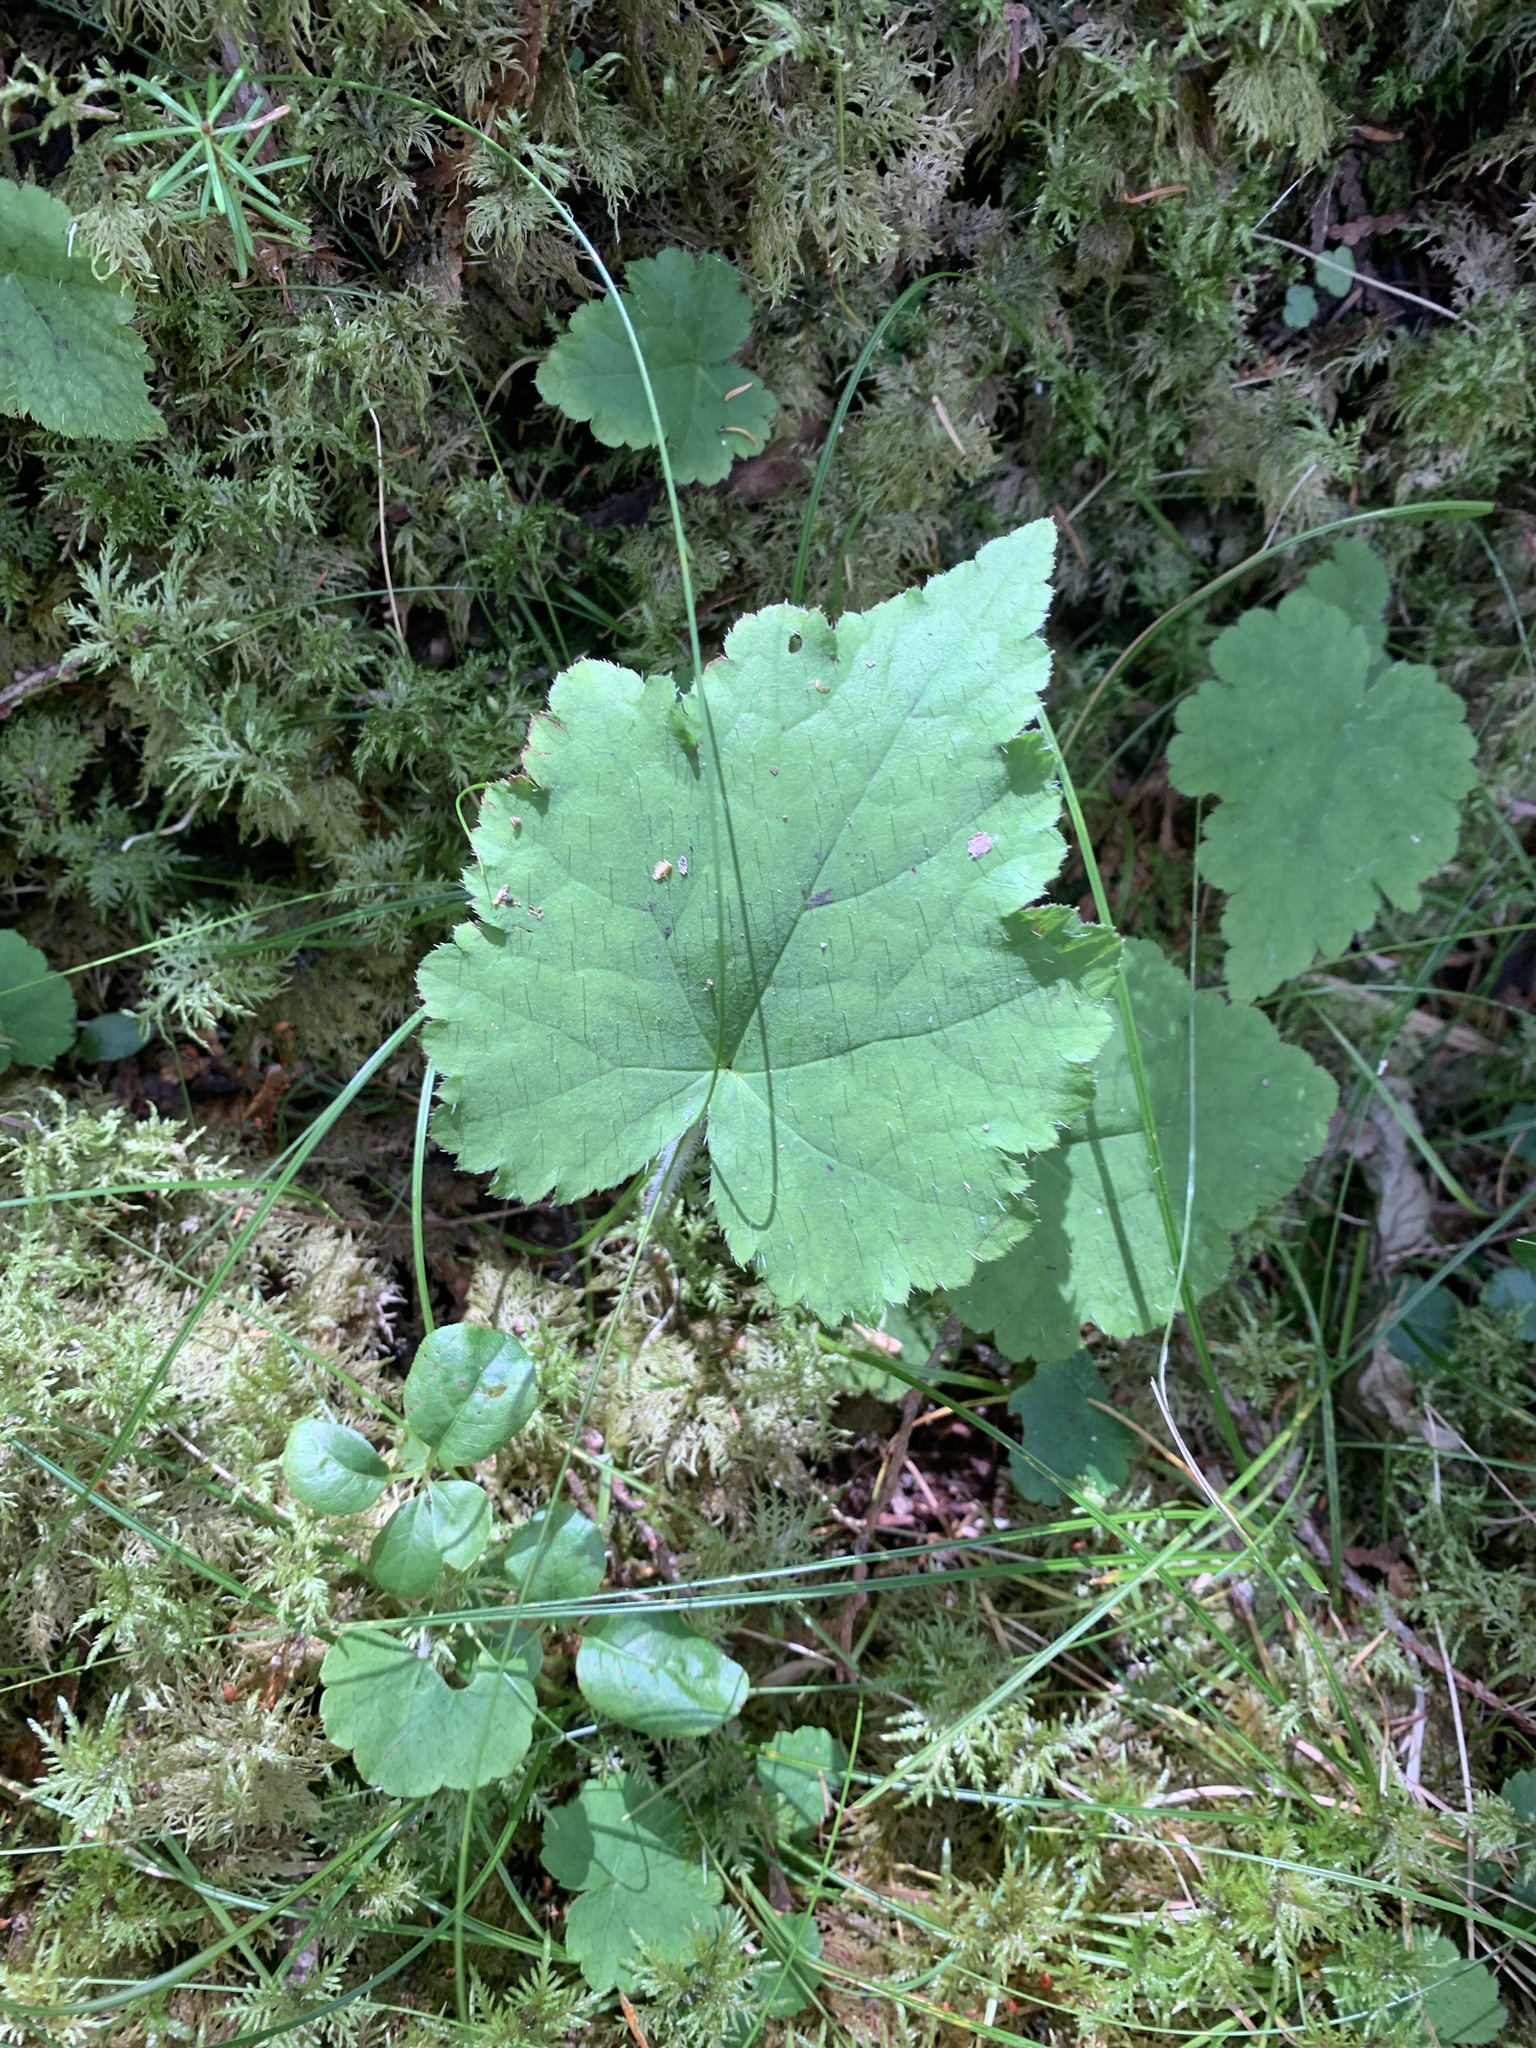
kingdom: Plantae
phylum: Tracheophyta
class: Magnoliopsida
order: Saxifragales
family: Saxifragaceae
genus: Tiarella
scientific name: Tiarella stolonifera
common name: Stoloniferous foamflower
